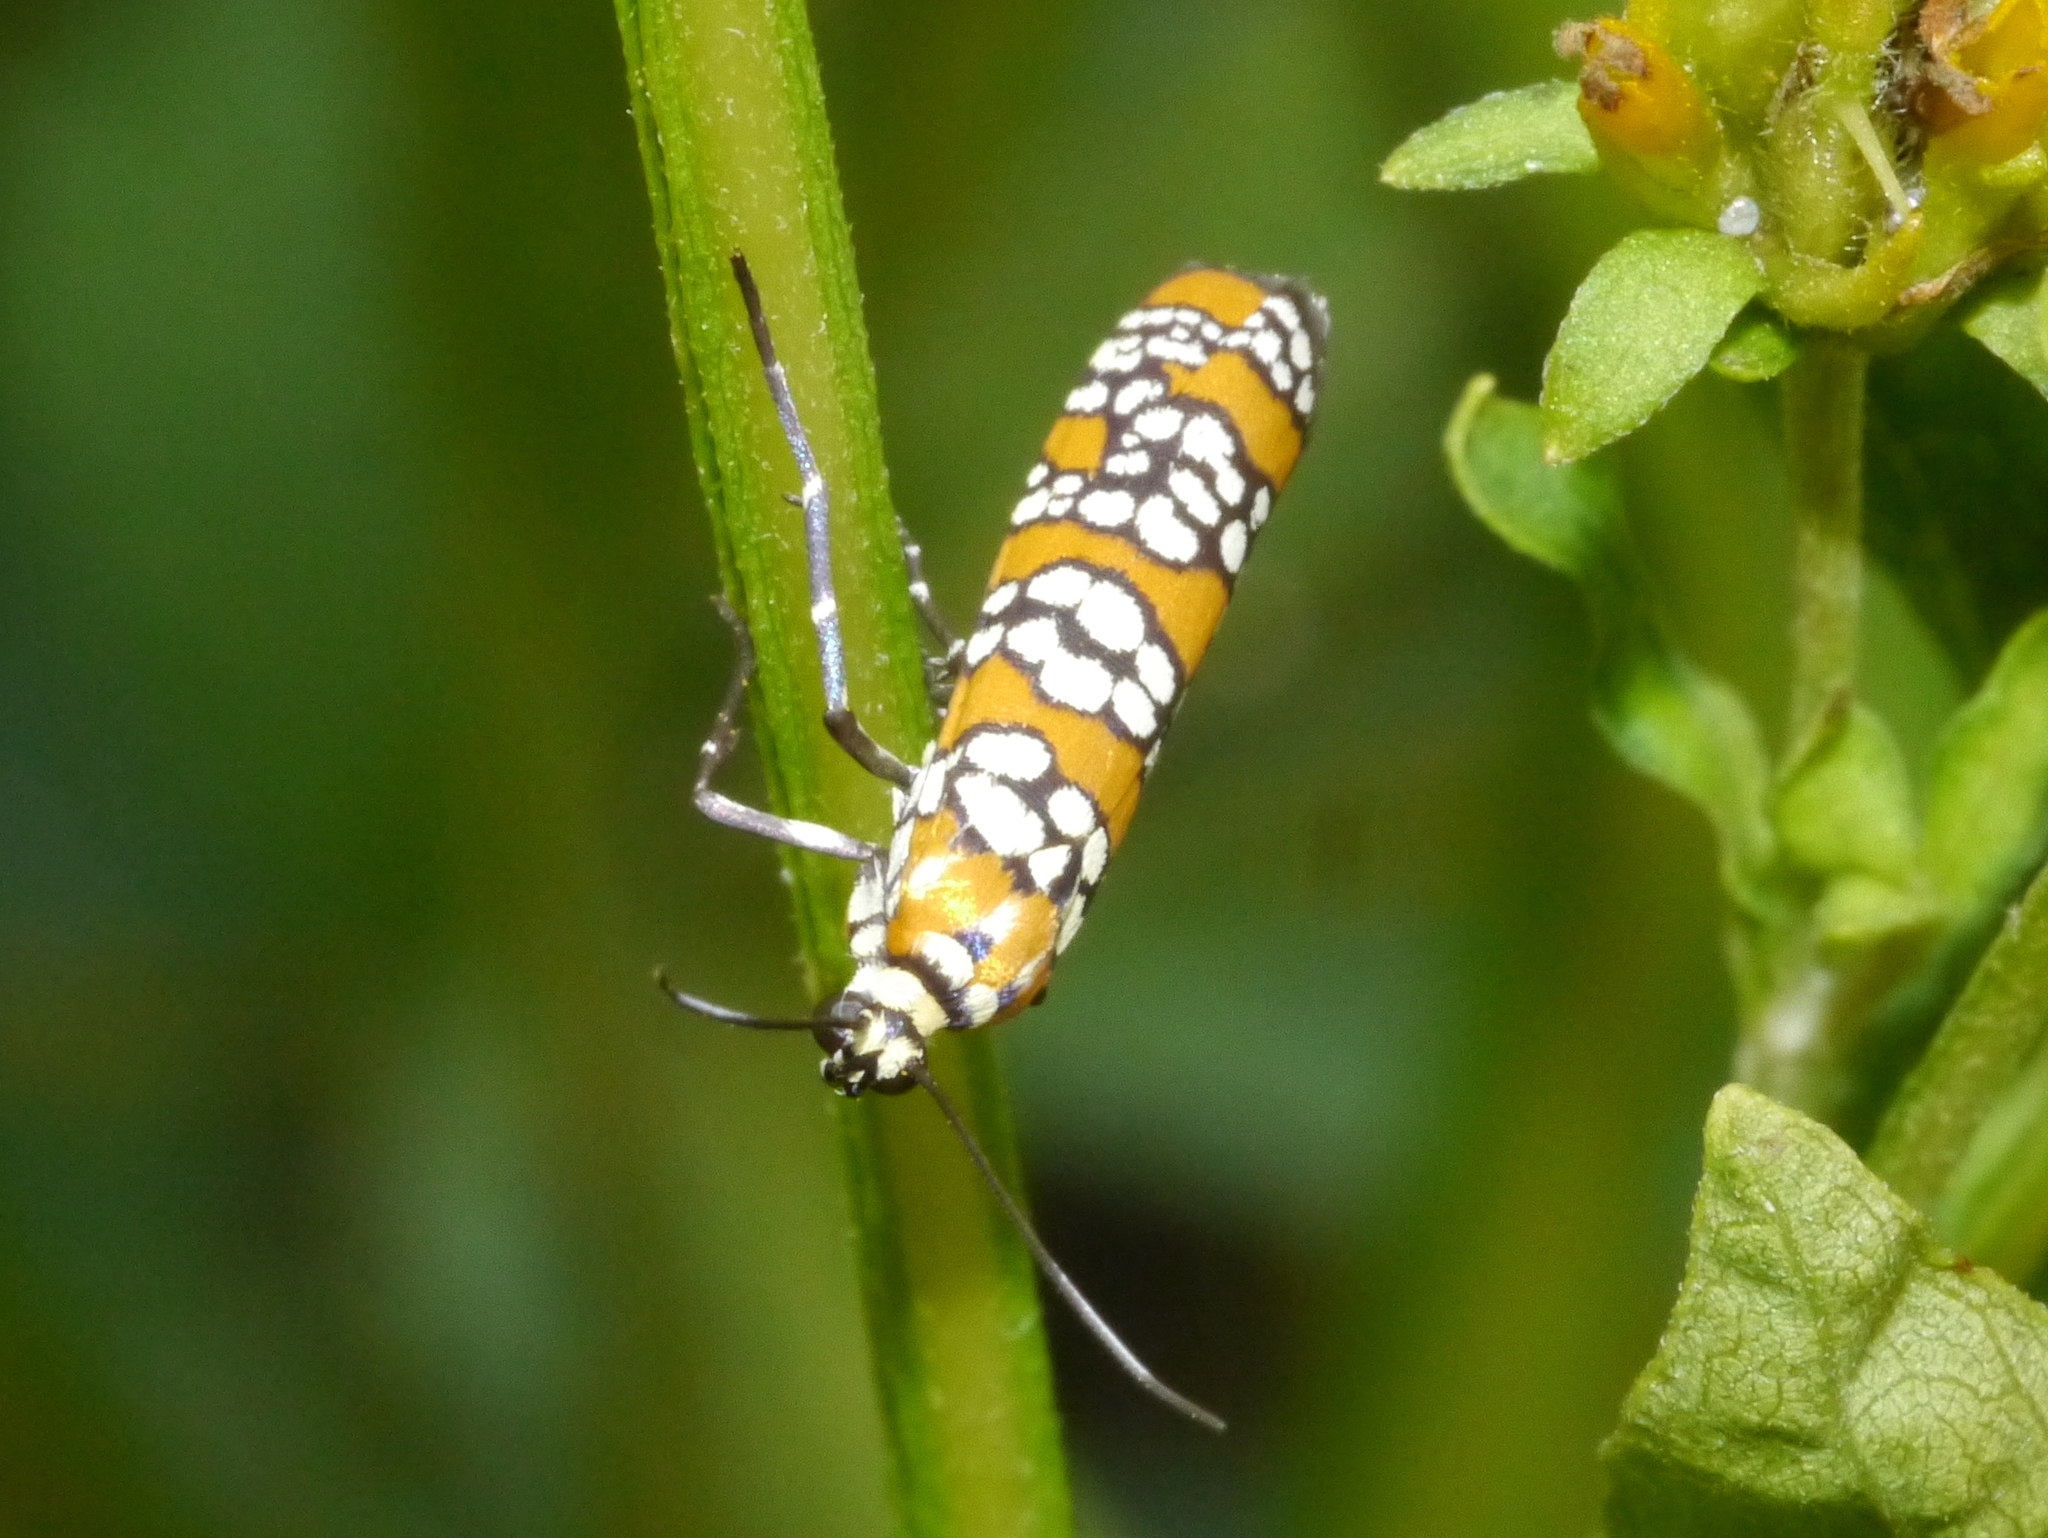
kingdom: Animalia
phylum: Arthropoda
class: Insecta
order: Lepidoptera
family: Attevidae
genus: Atteva
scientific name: Atteva punctella
